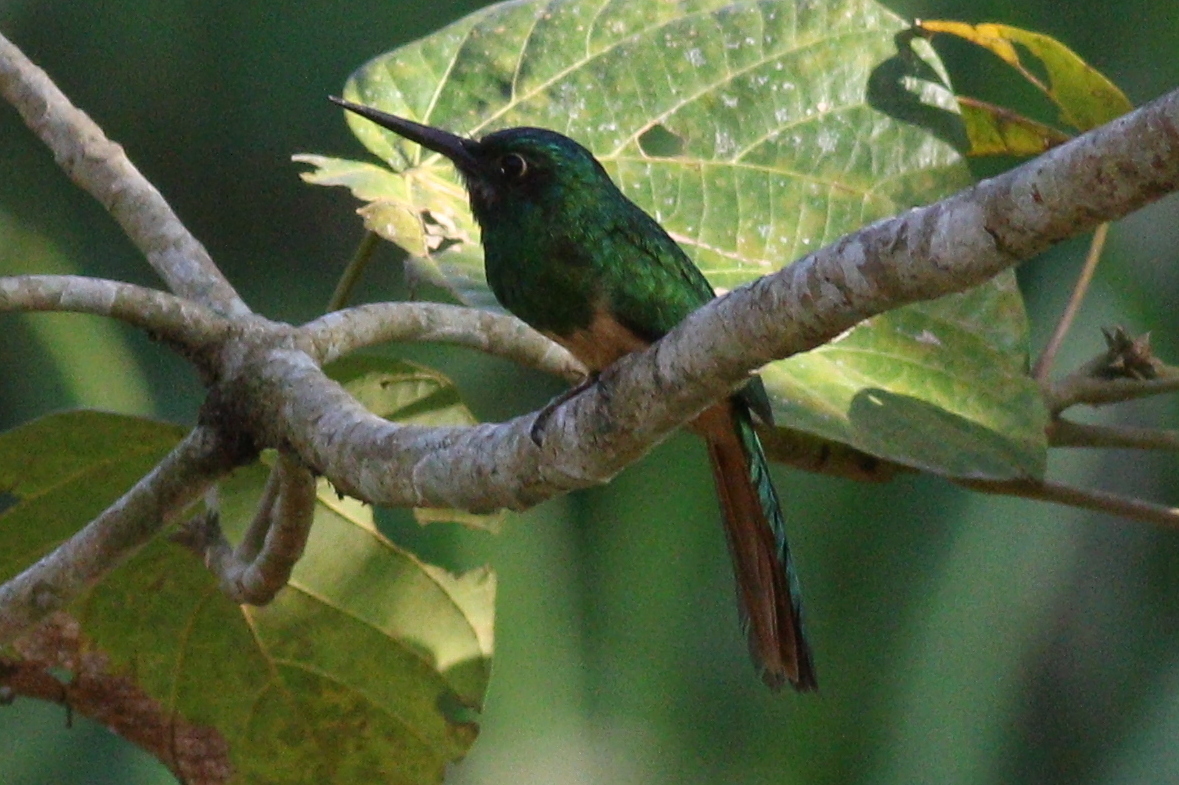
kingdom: Animalia
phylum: Chordata
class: Aves
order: Piciformes
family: Galbulidae
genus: Galbula
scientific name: Galbula cyanescens
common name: Bluish-fronted jacamar
